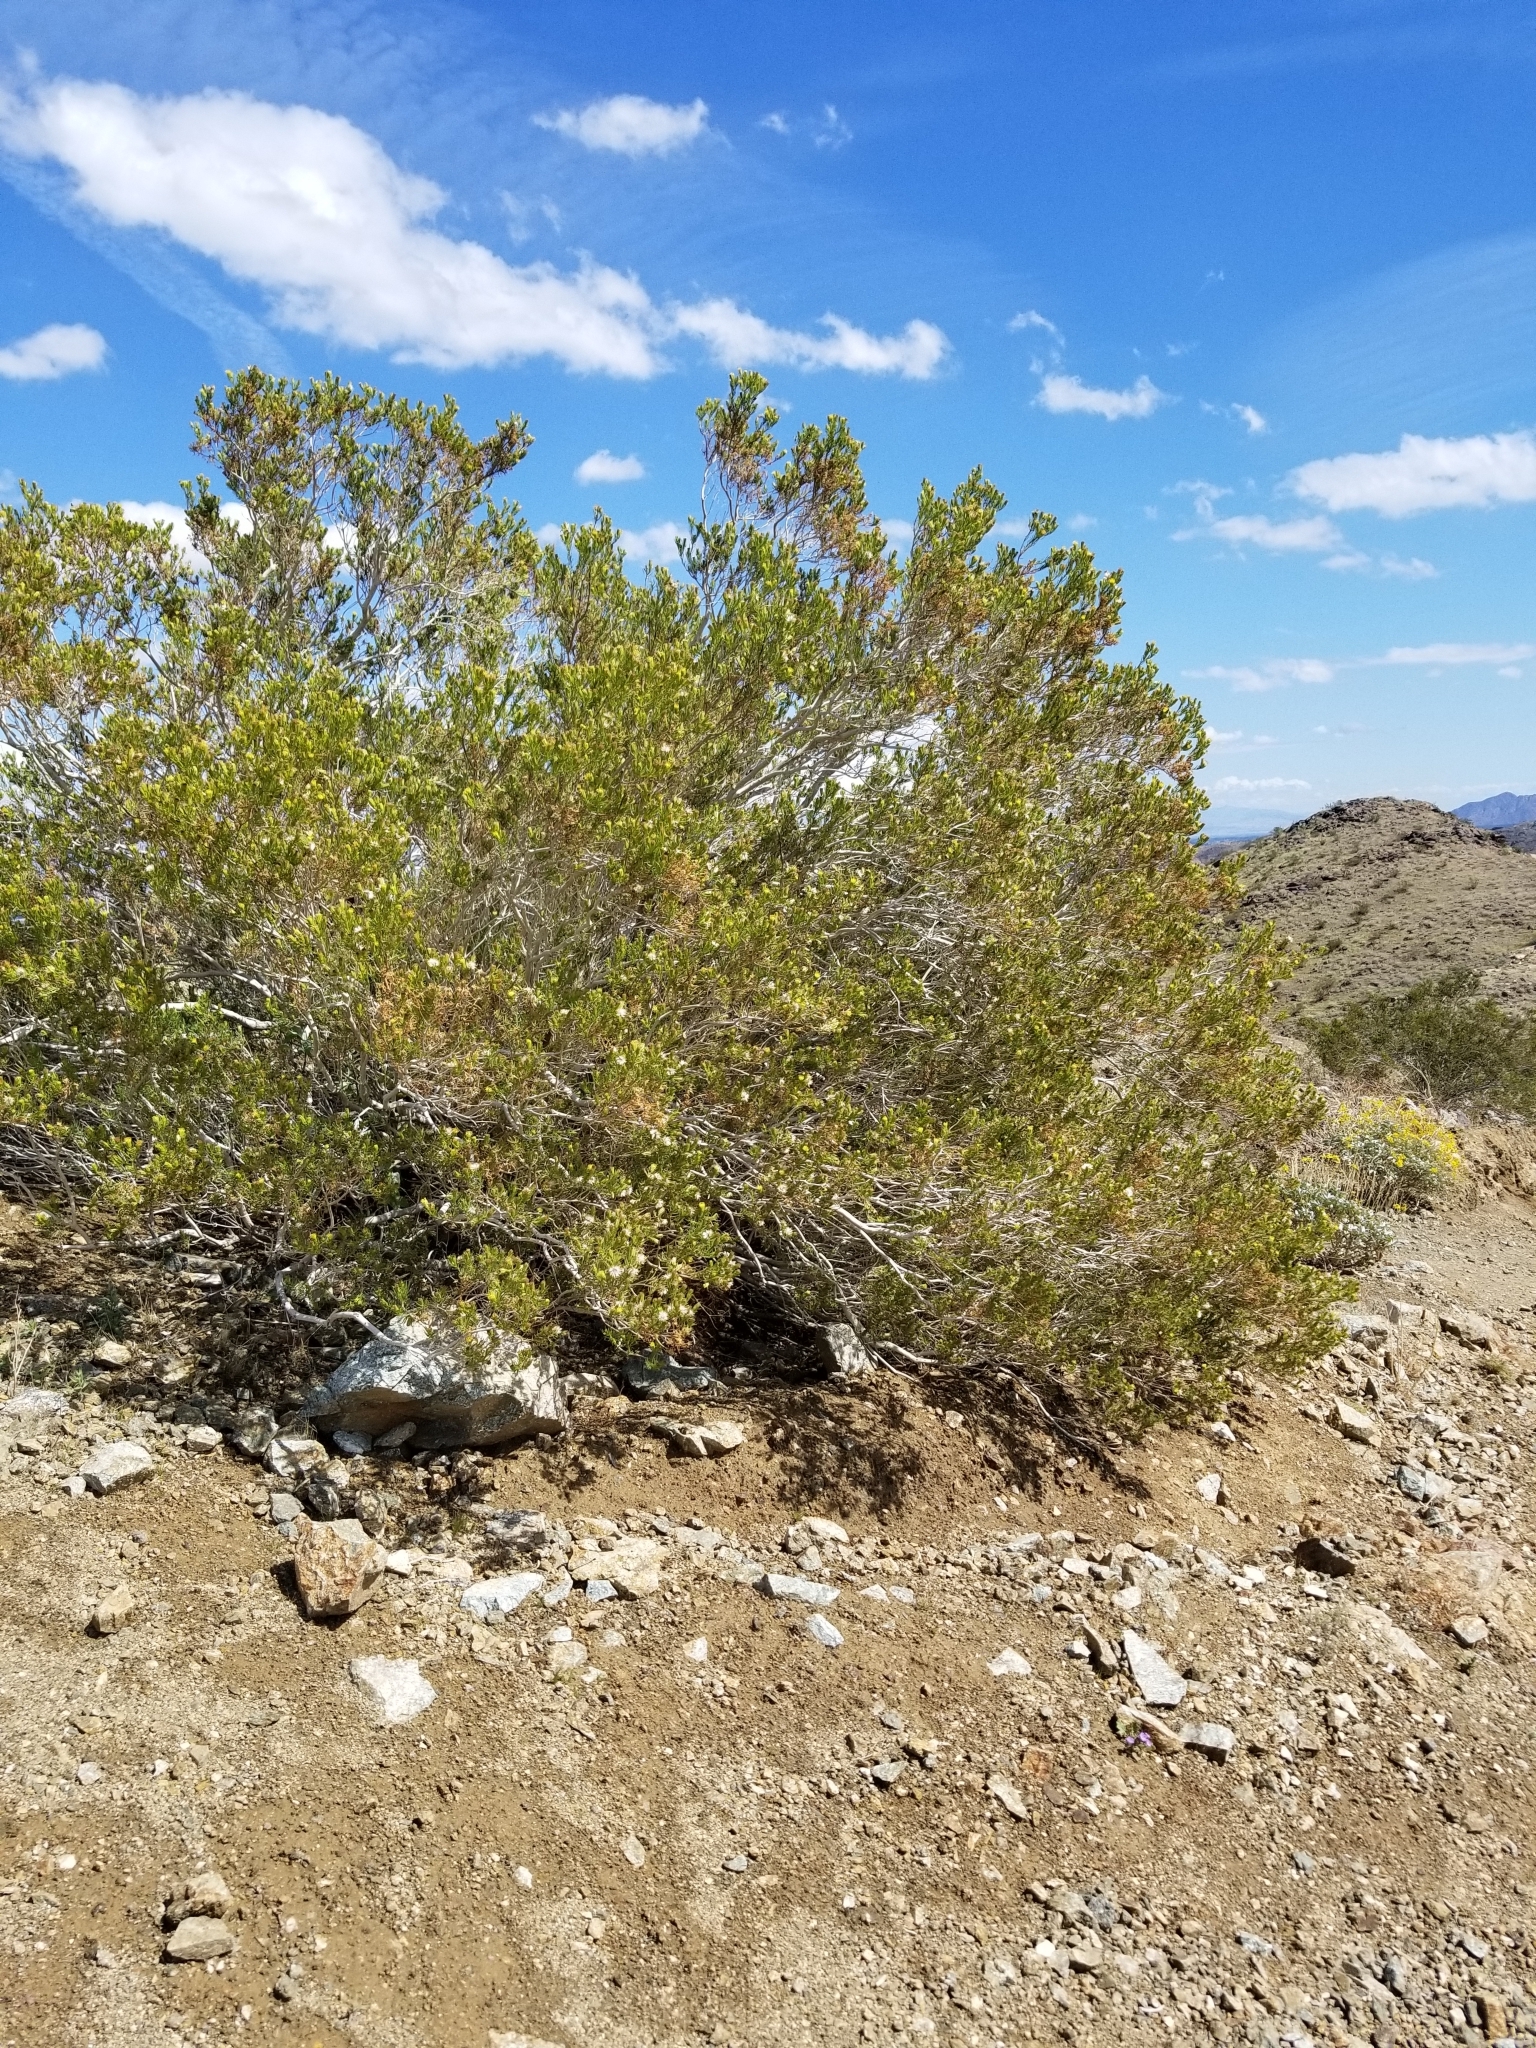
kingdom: Plantae
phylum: Tracheophyta
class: Magnoliopsida
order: Asterales
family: Asteraceae
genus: Peucephyllum
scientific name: Peucephyllum schottii
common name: Pygmy-cedar
